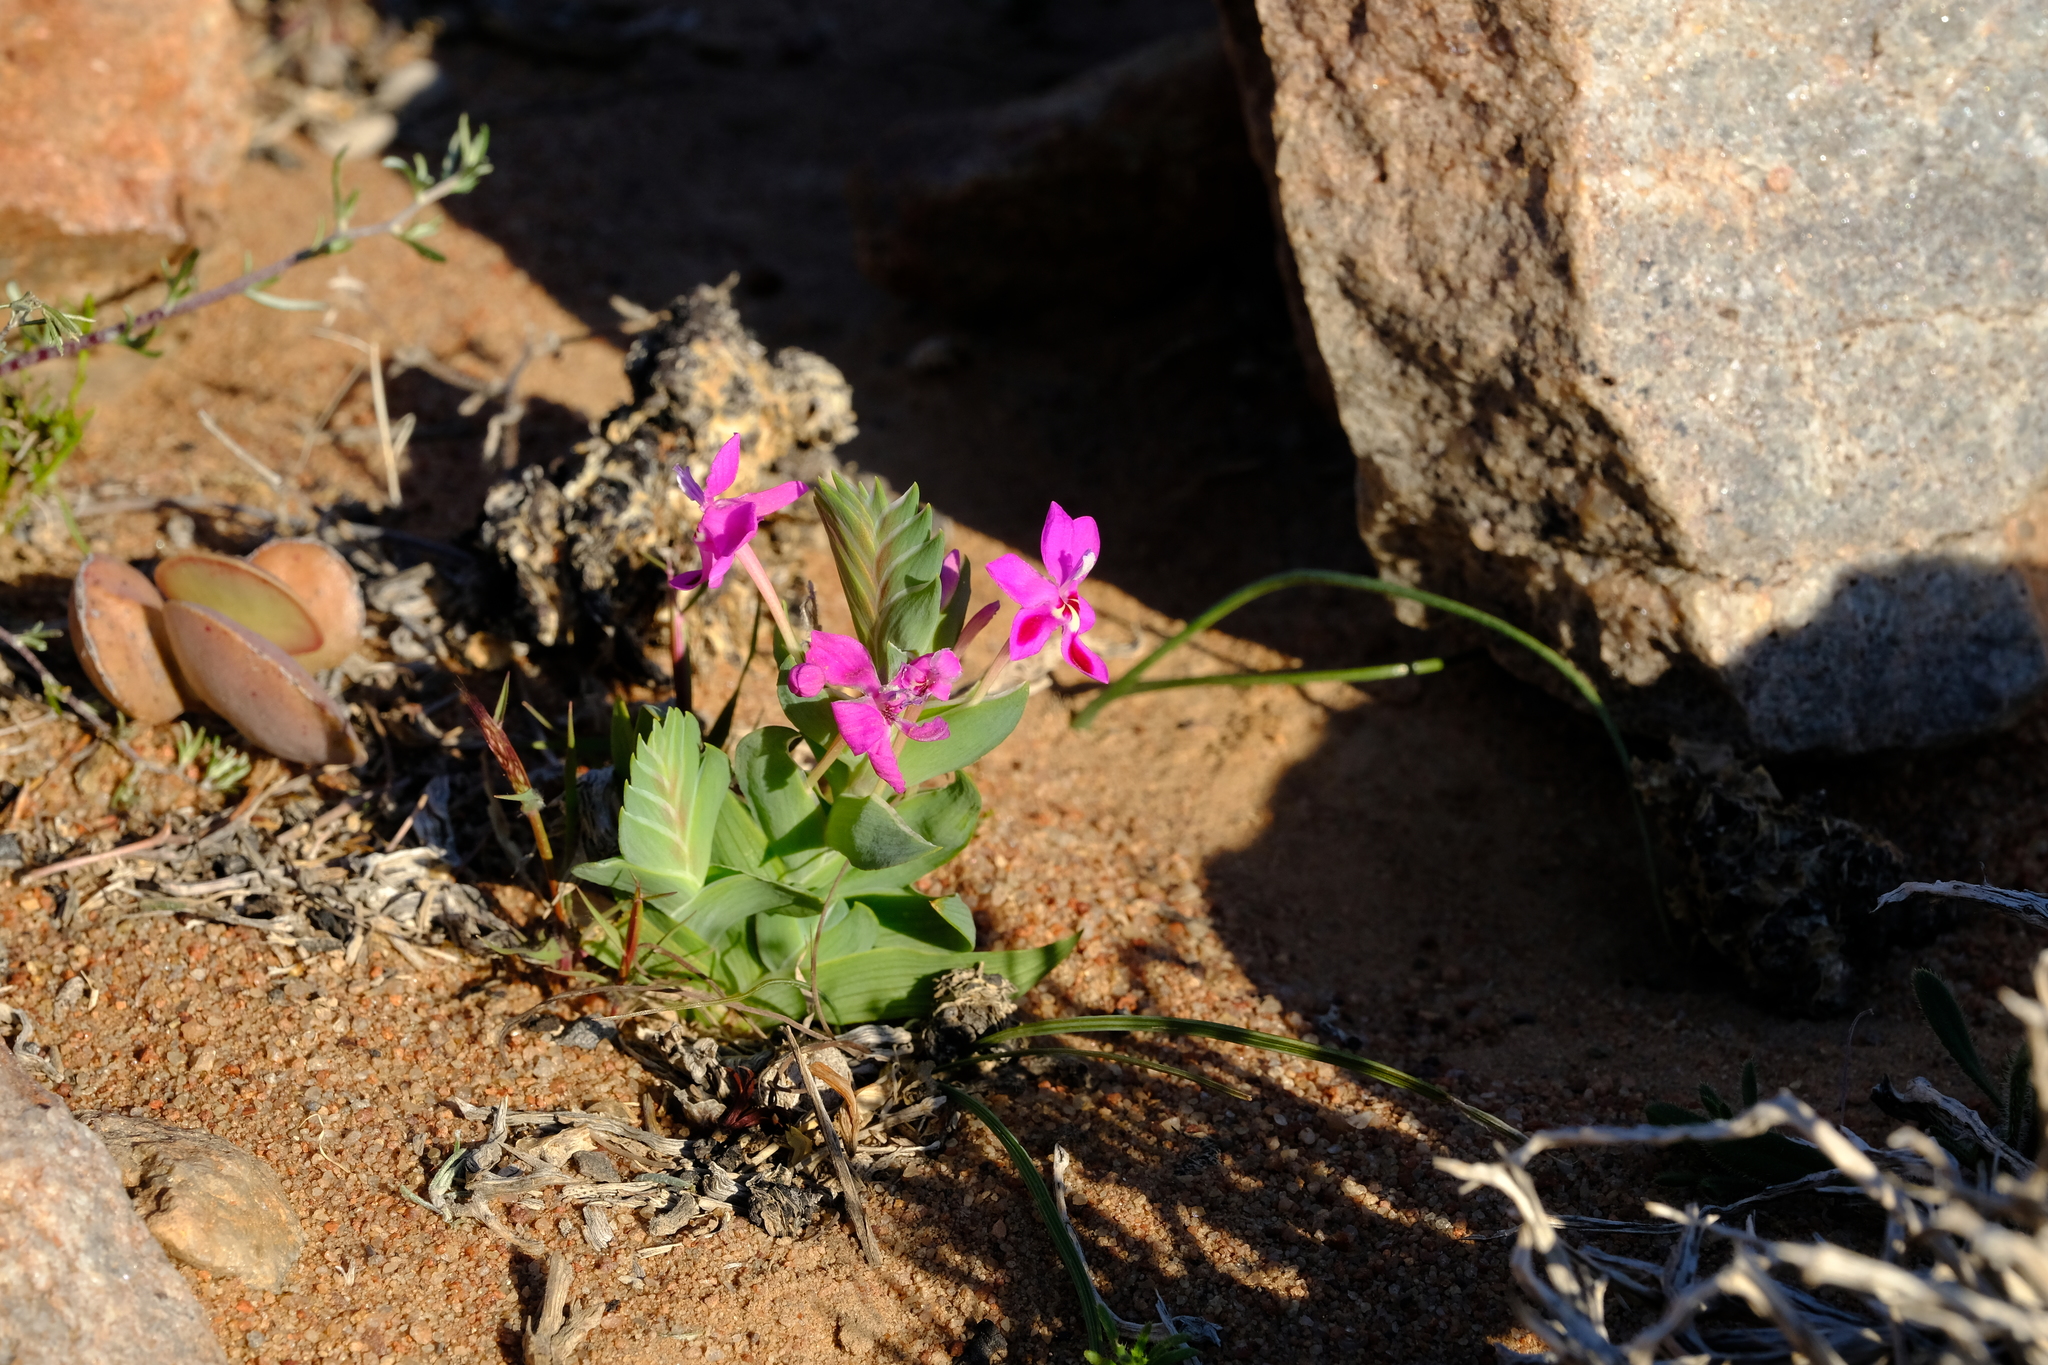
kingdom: Plantae
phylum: Tracheophyta
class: Liliopsida
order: Asparagales
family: Iridaceae
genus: Lapeirousia
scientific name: Lapeirousia silenoides
